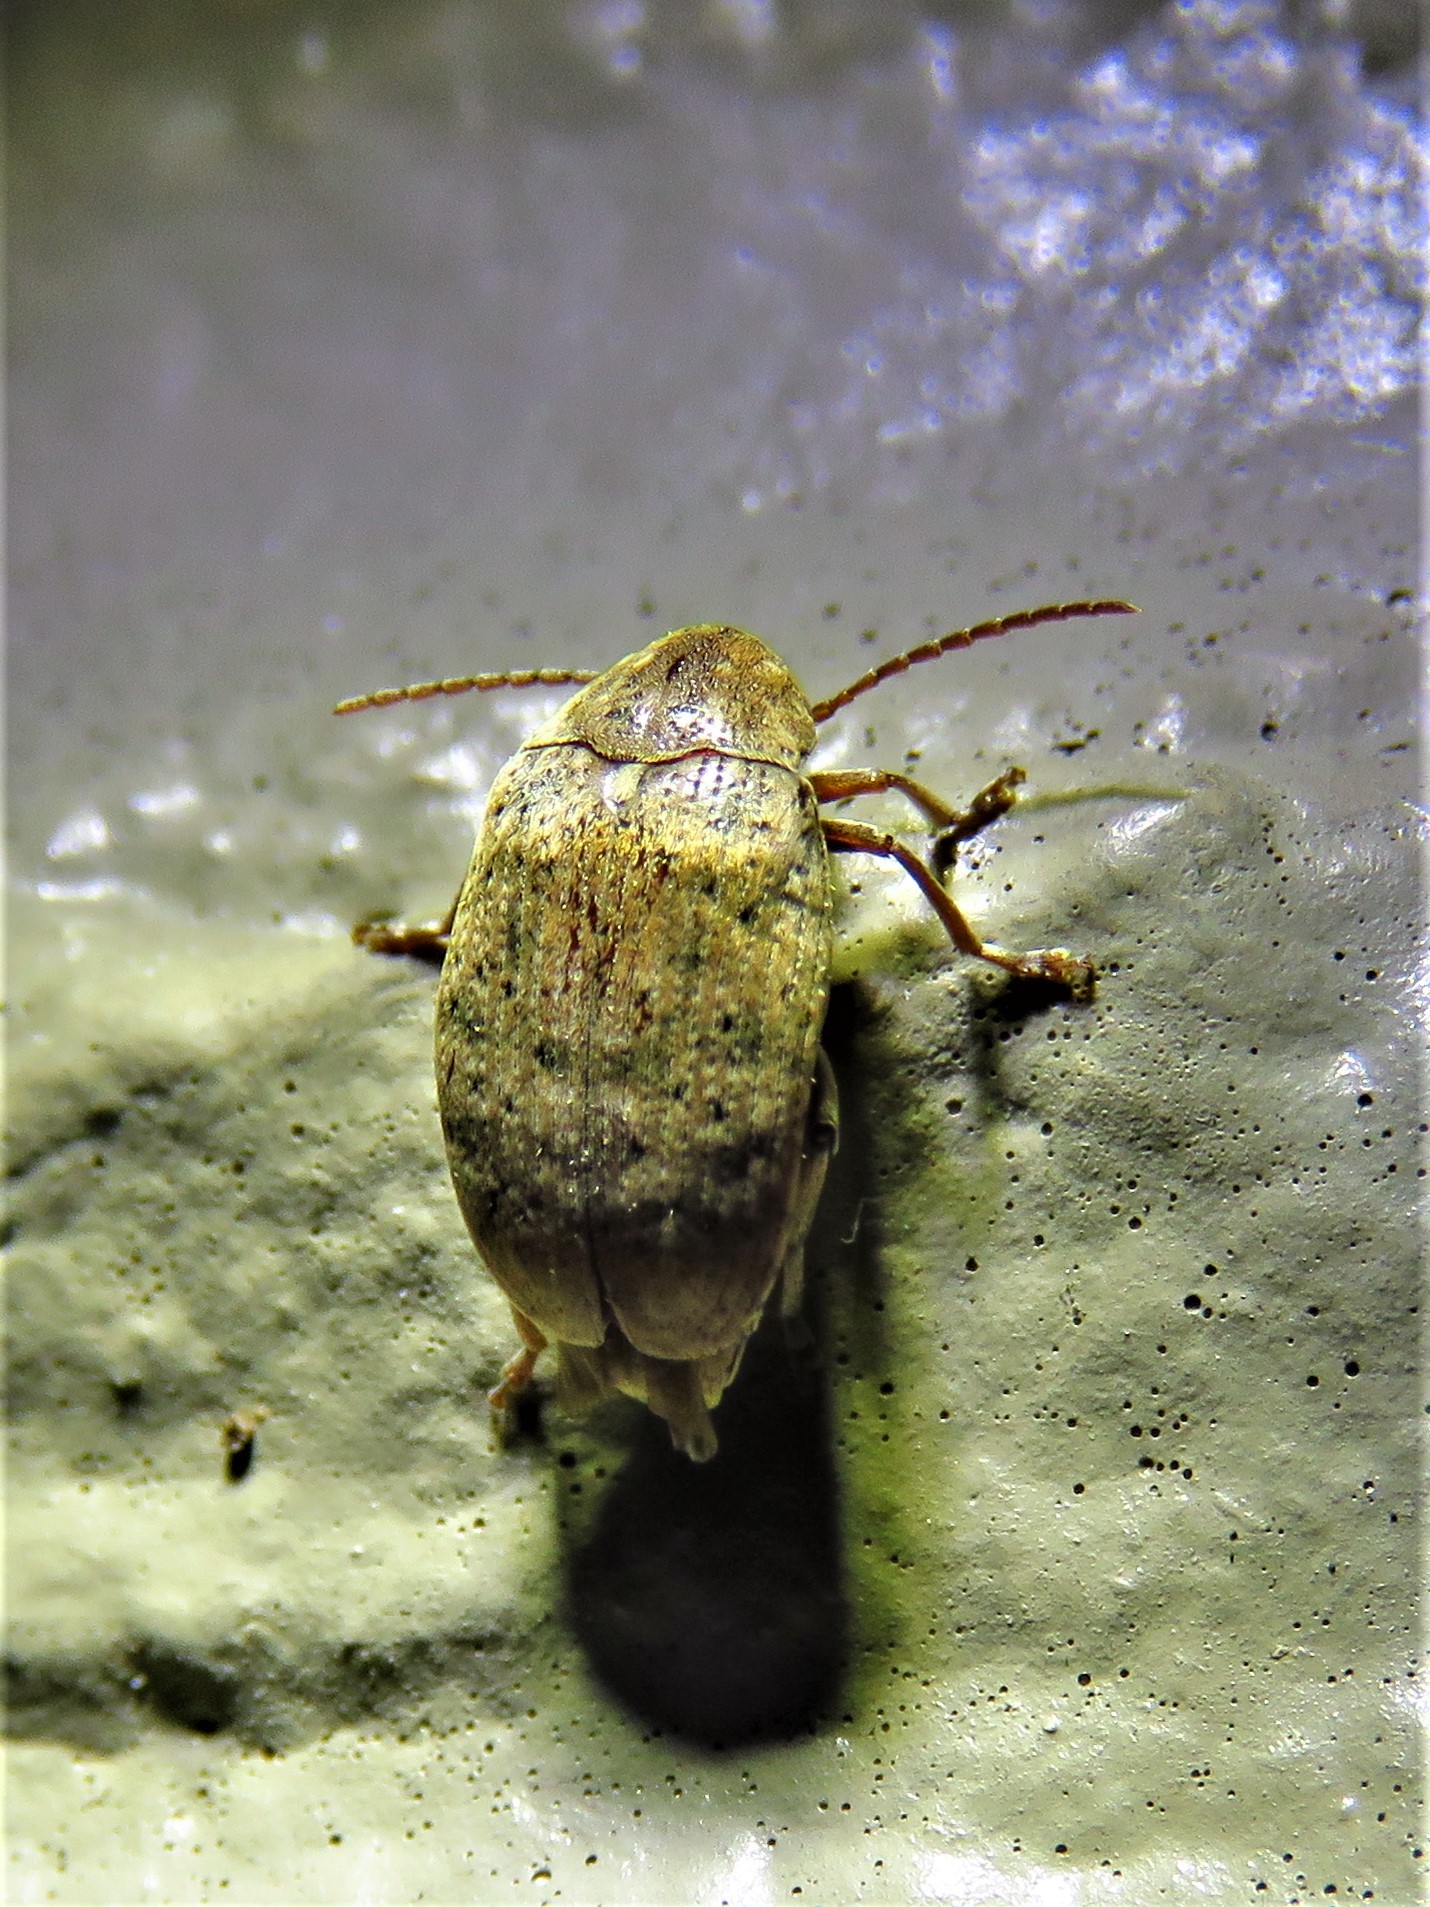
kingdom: Animalia
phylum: Arthropoda
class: Insecta
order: Coleoptera
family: Chrysomelidae
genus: Amblycerus
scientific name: Amblycerus robiniae
